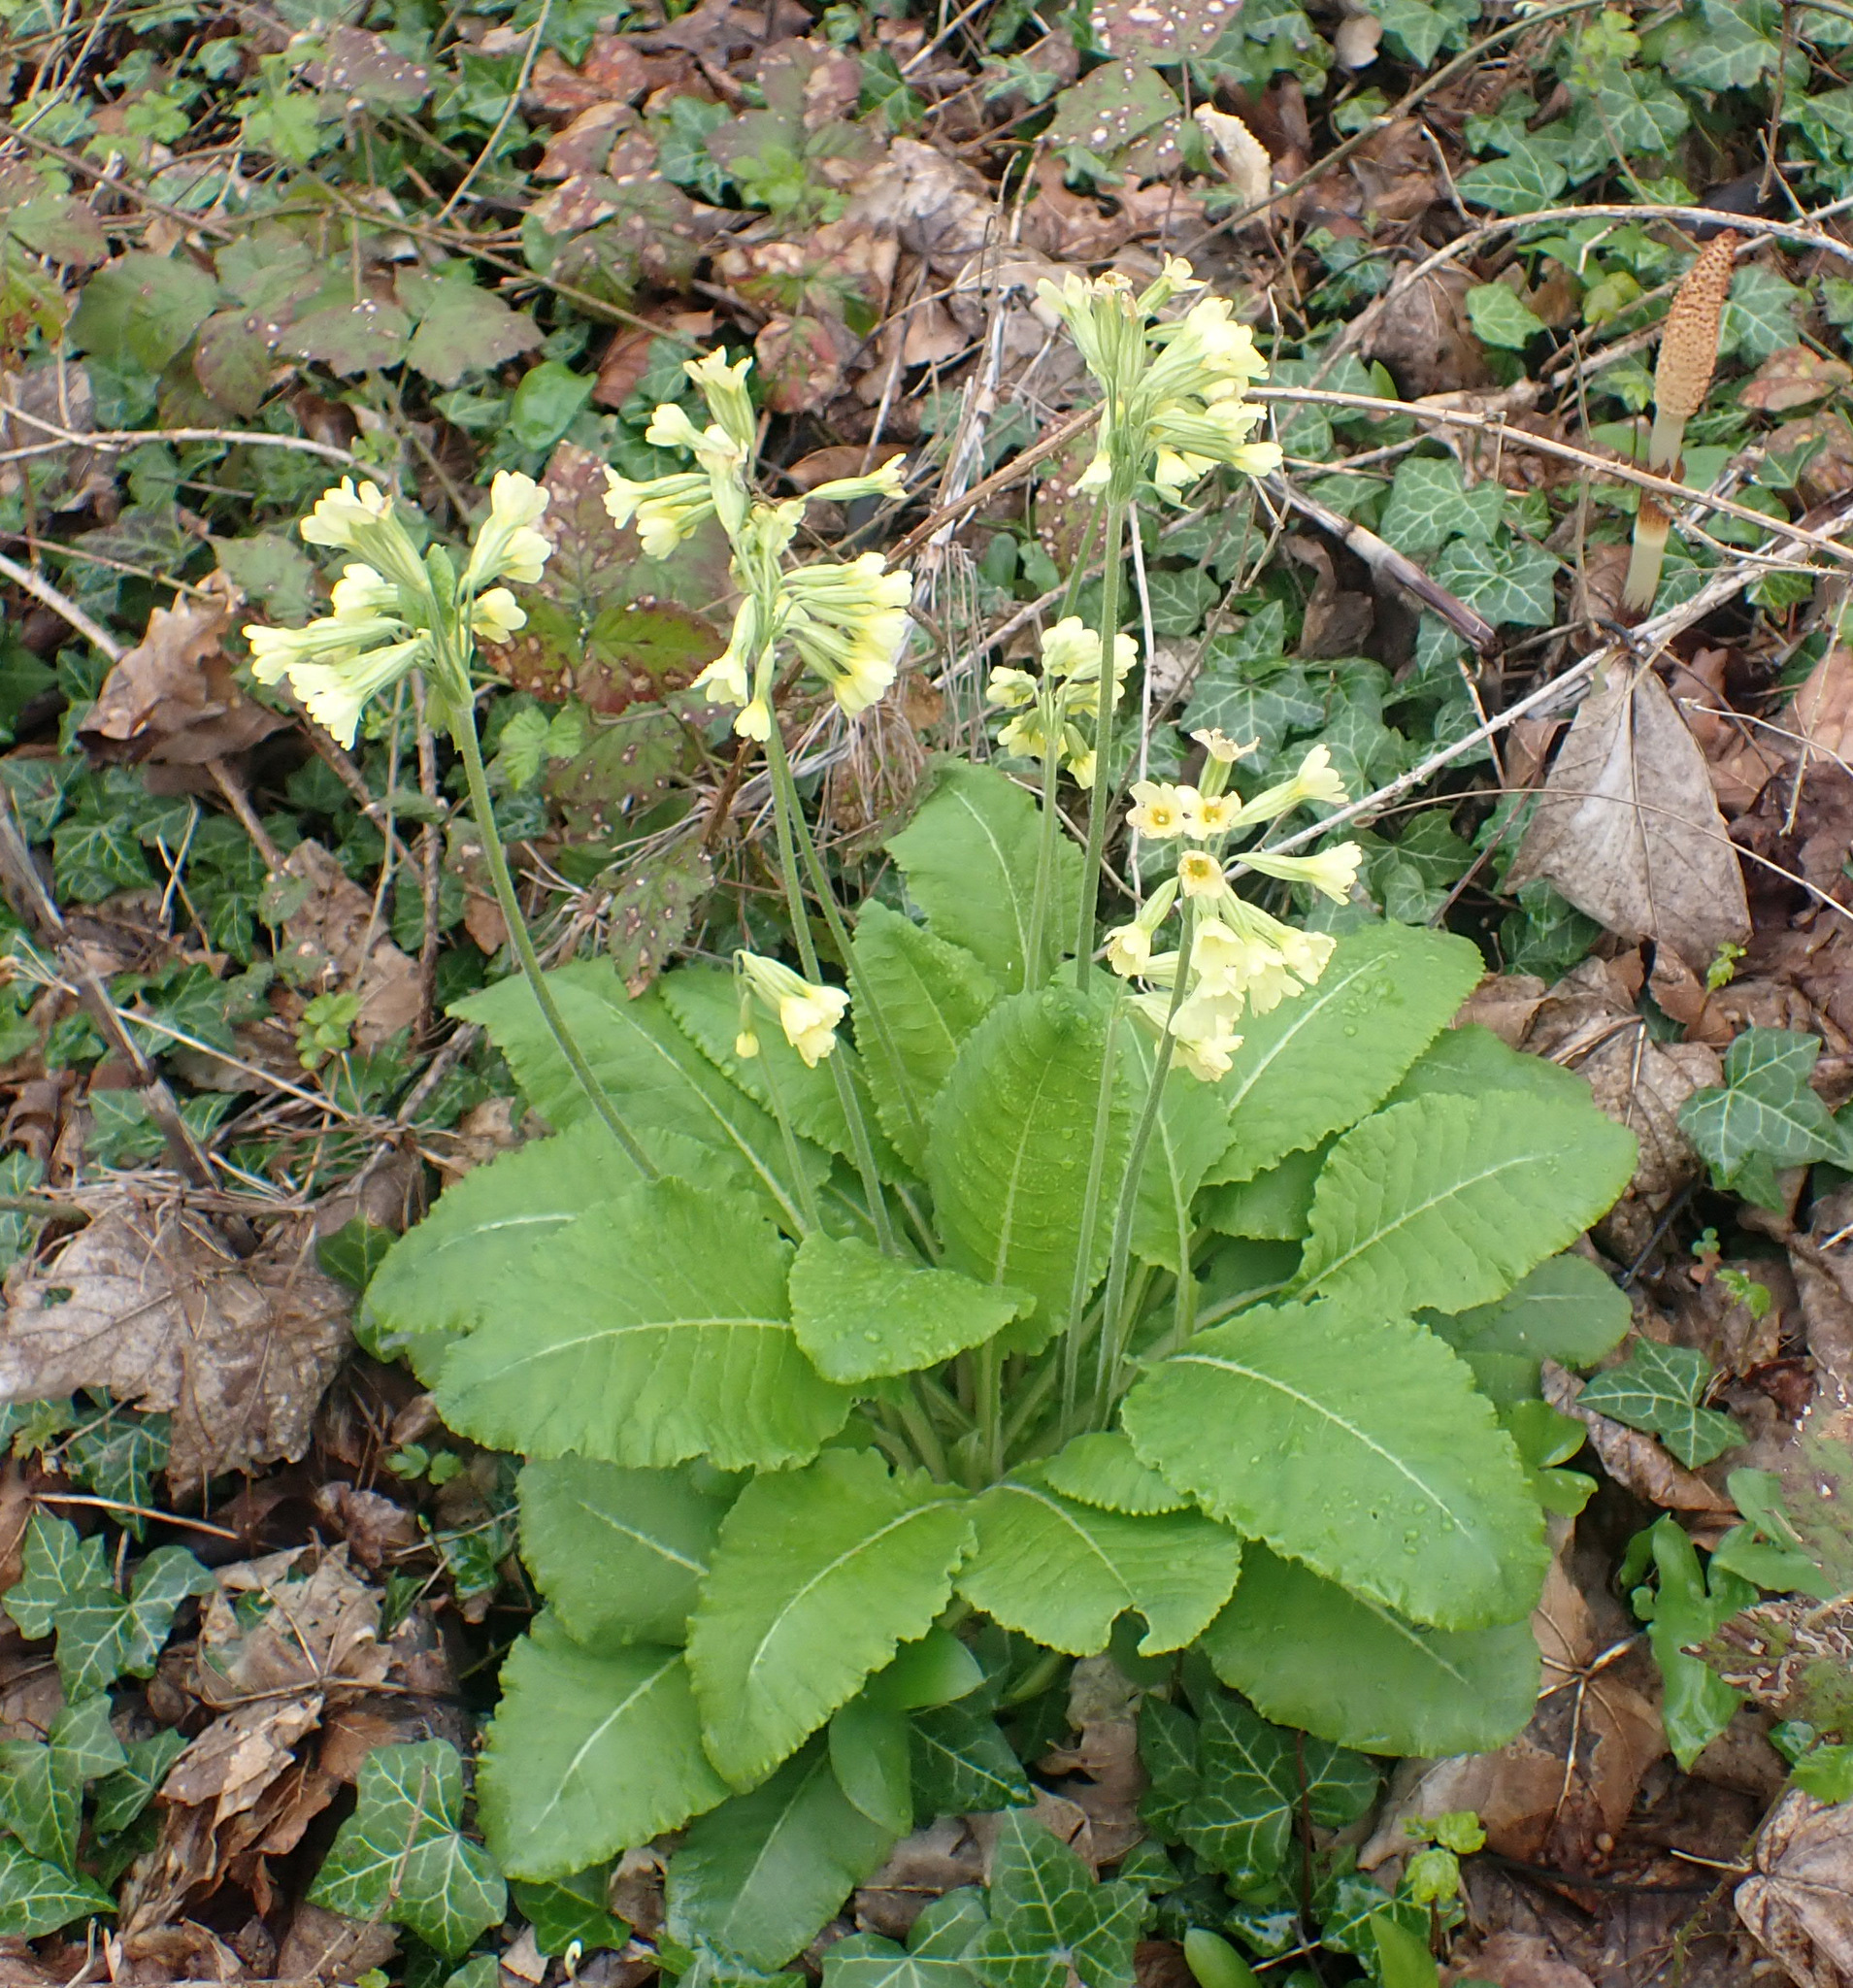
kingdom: Plantae
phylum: Tracheophyta
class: Magnoliopsida
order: Ericales
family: Primulaceae
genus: Primula
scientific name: Primula elatior
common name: Oxlip
